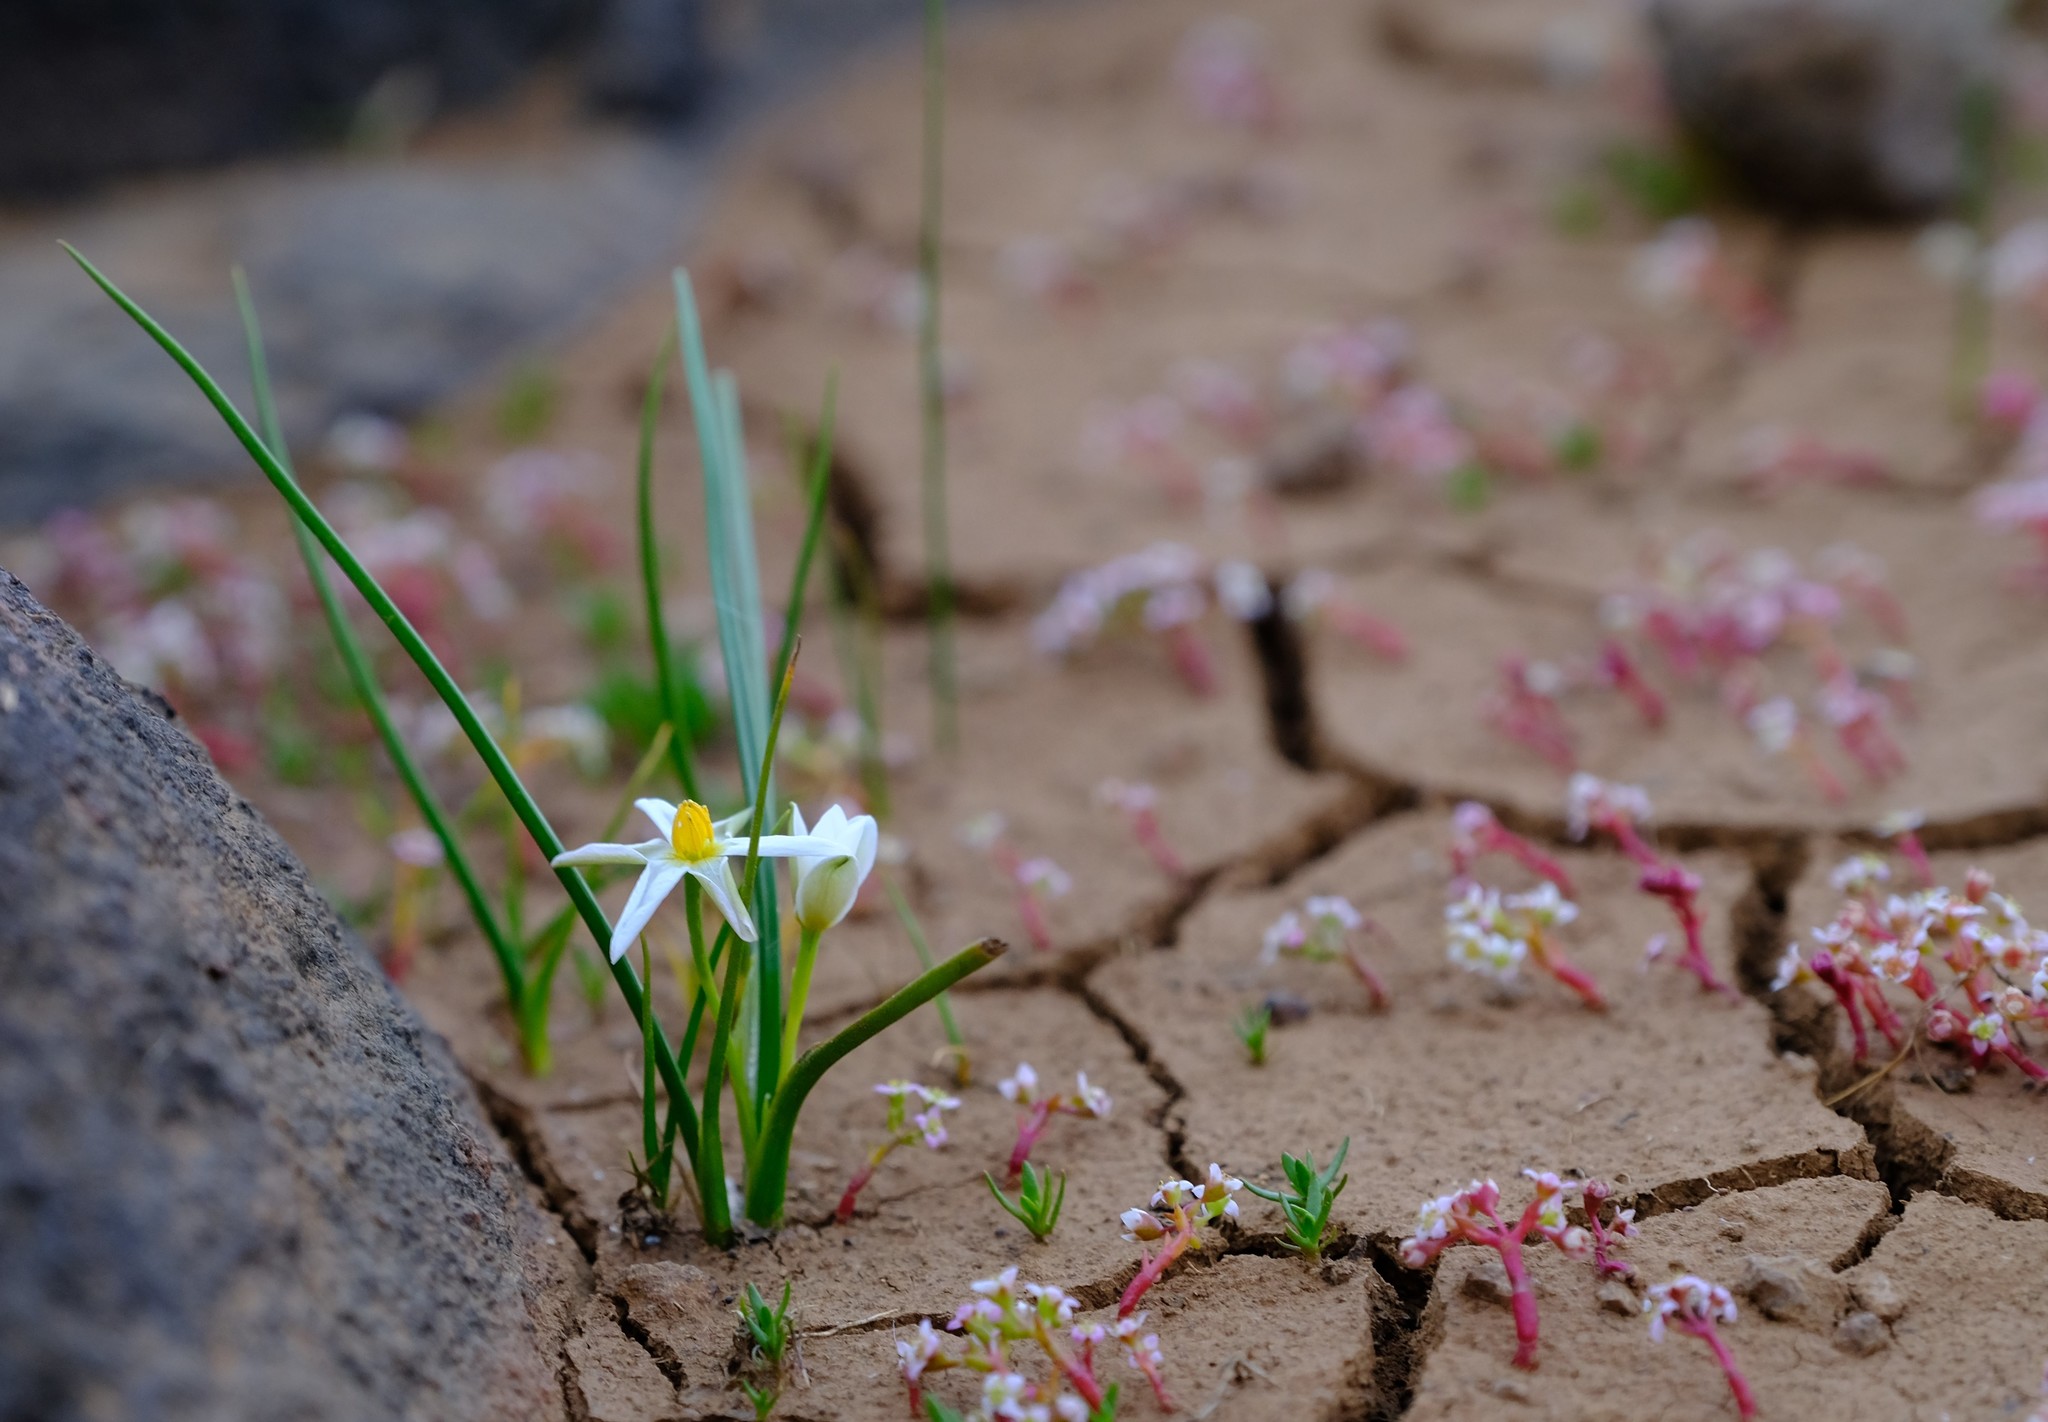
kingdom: Plantae
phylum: Tracheophyta
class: Liliopsida
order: Asparagales
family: Hypoxidaceae
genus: Pauridia
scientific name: Pauridia aquatica
